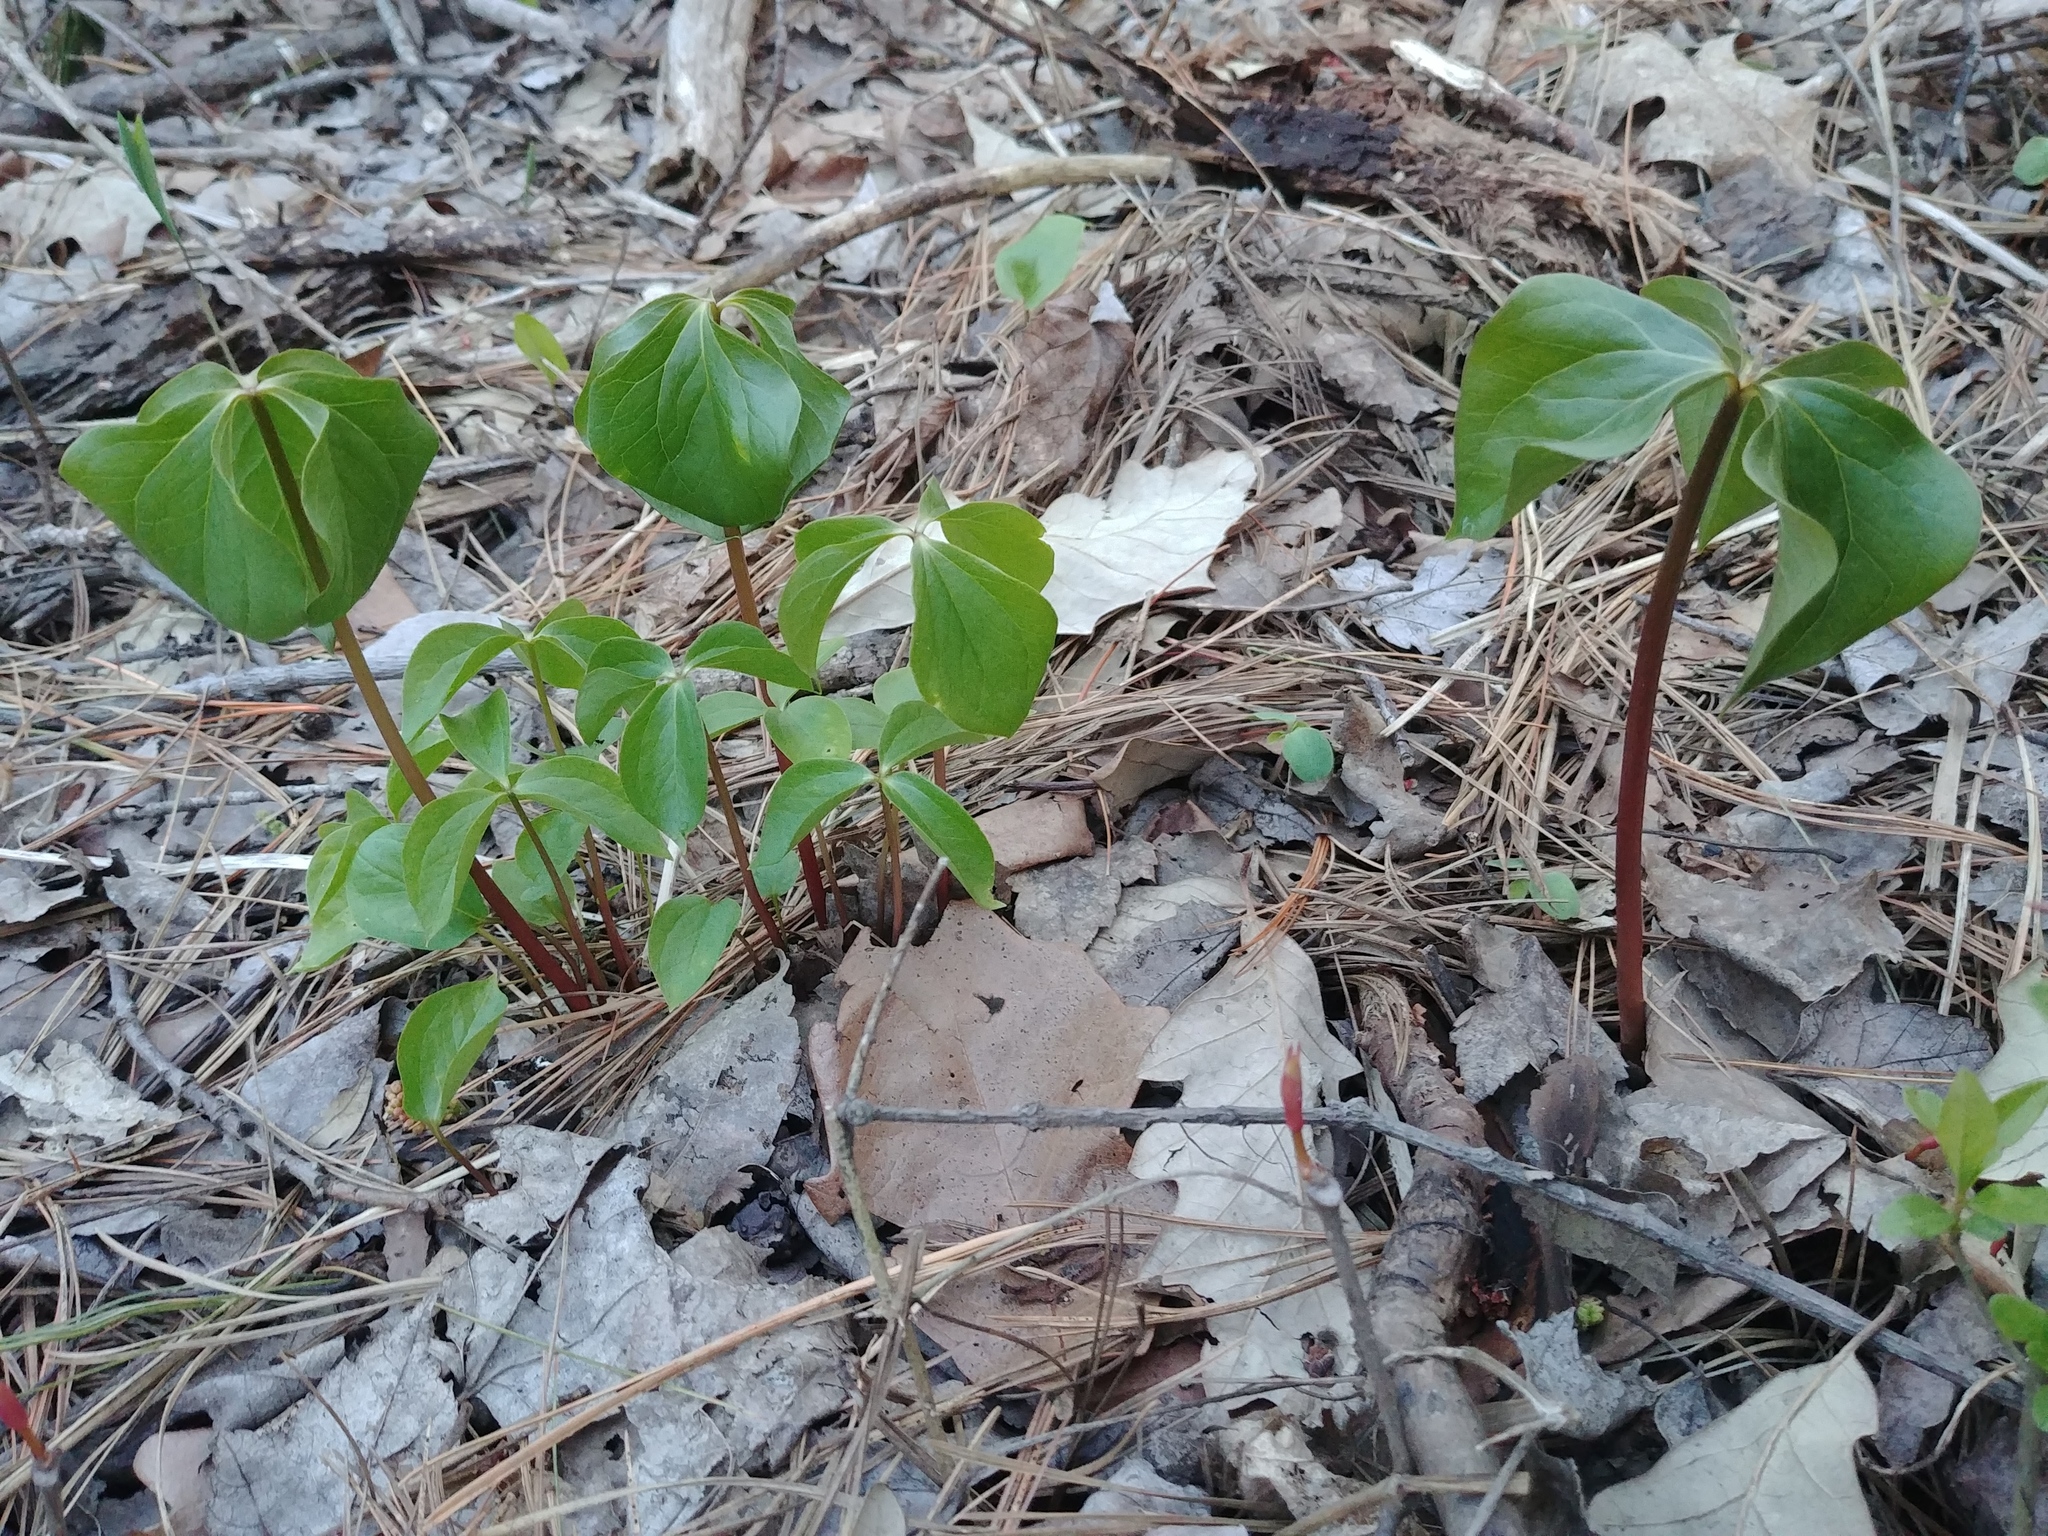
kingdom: Plantae
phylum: Tracheophyta
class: Liliopsida
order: Liliales
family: Melanthiaceae
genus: Trillium
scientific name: Trillium cernuum
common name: Nodding trillium
